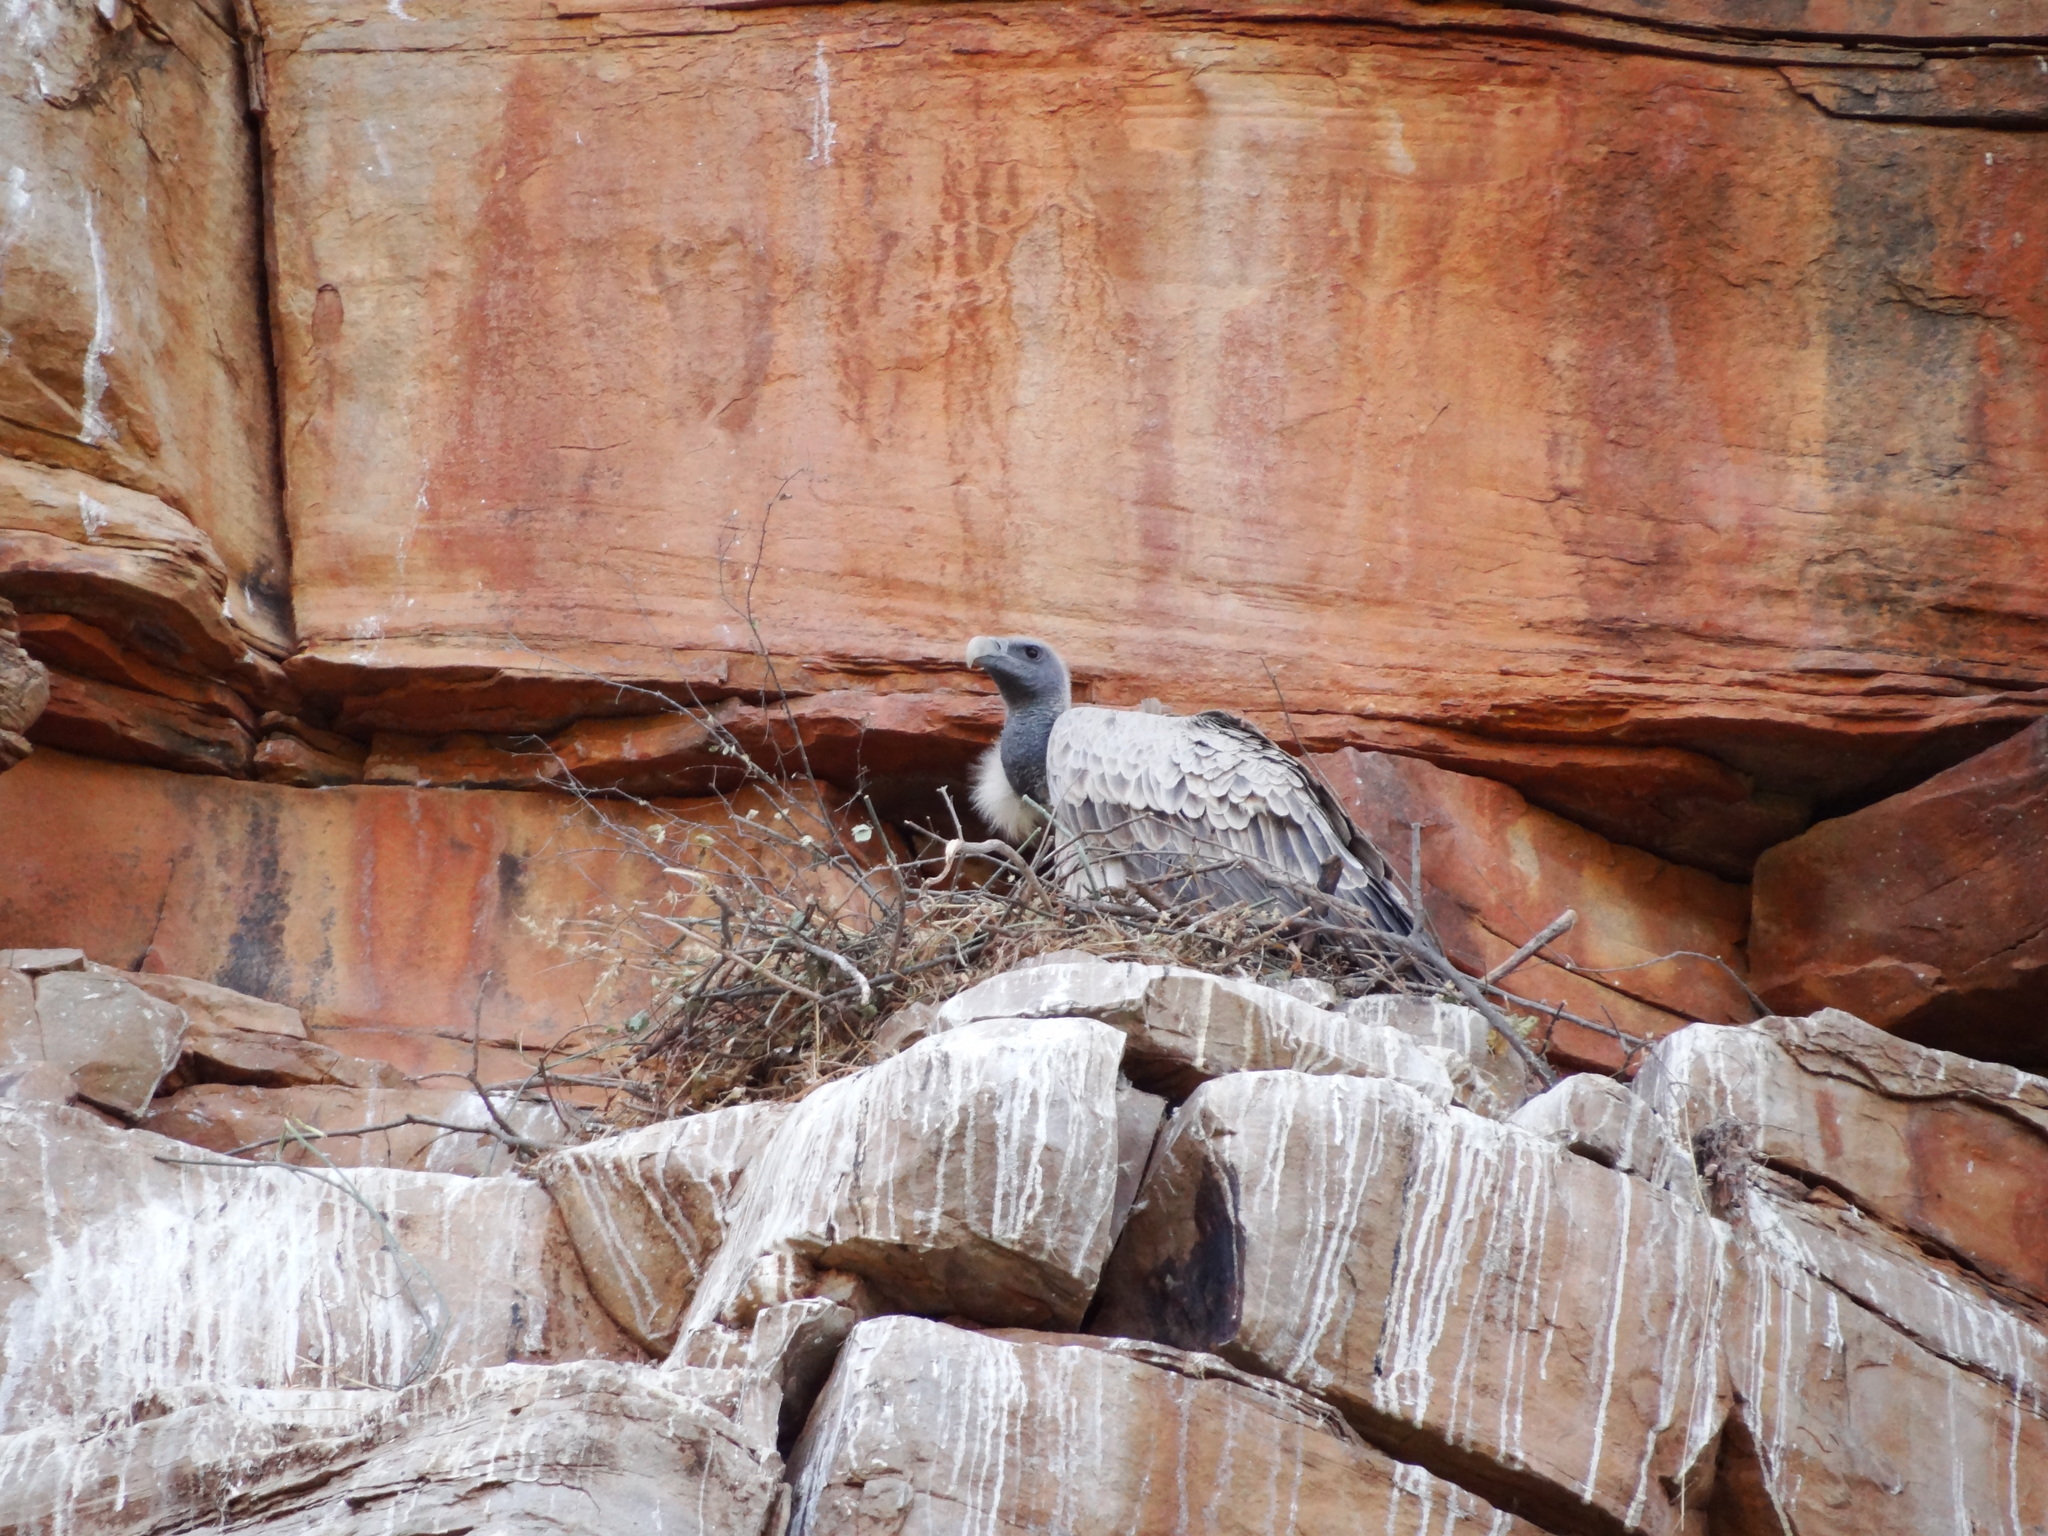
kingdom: Animalia
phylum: Chordata
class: Aves
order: Accipitriformes
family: Accipitridae
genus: Gyps
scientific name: Gyps indicus
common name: Indian vulture
